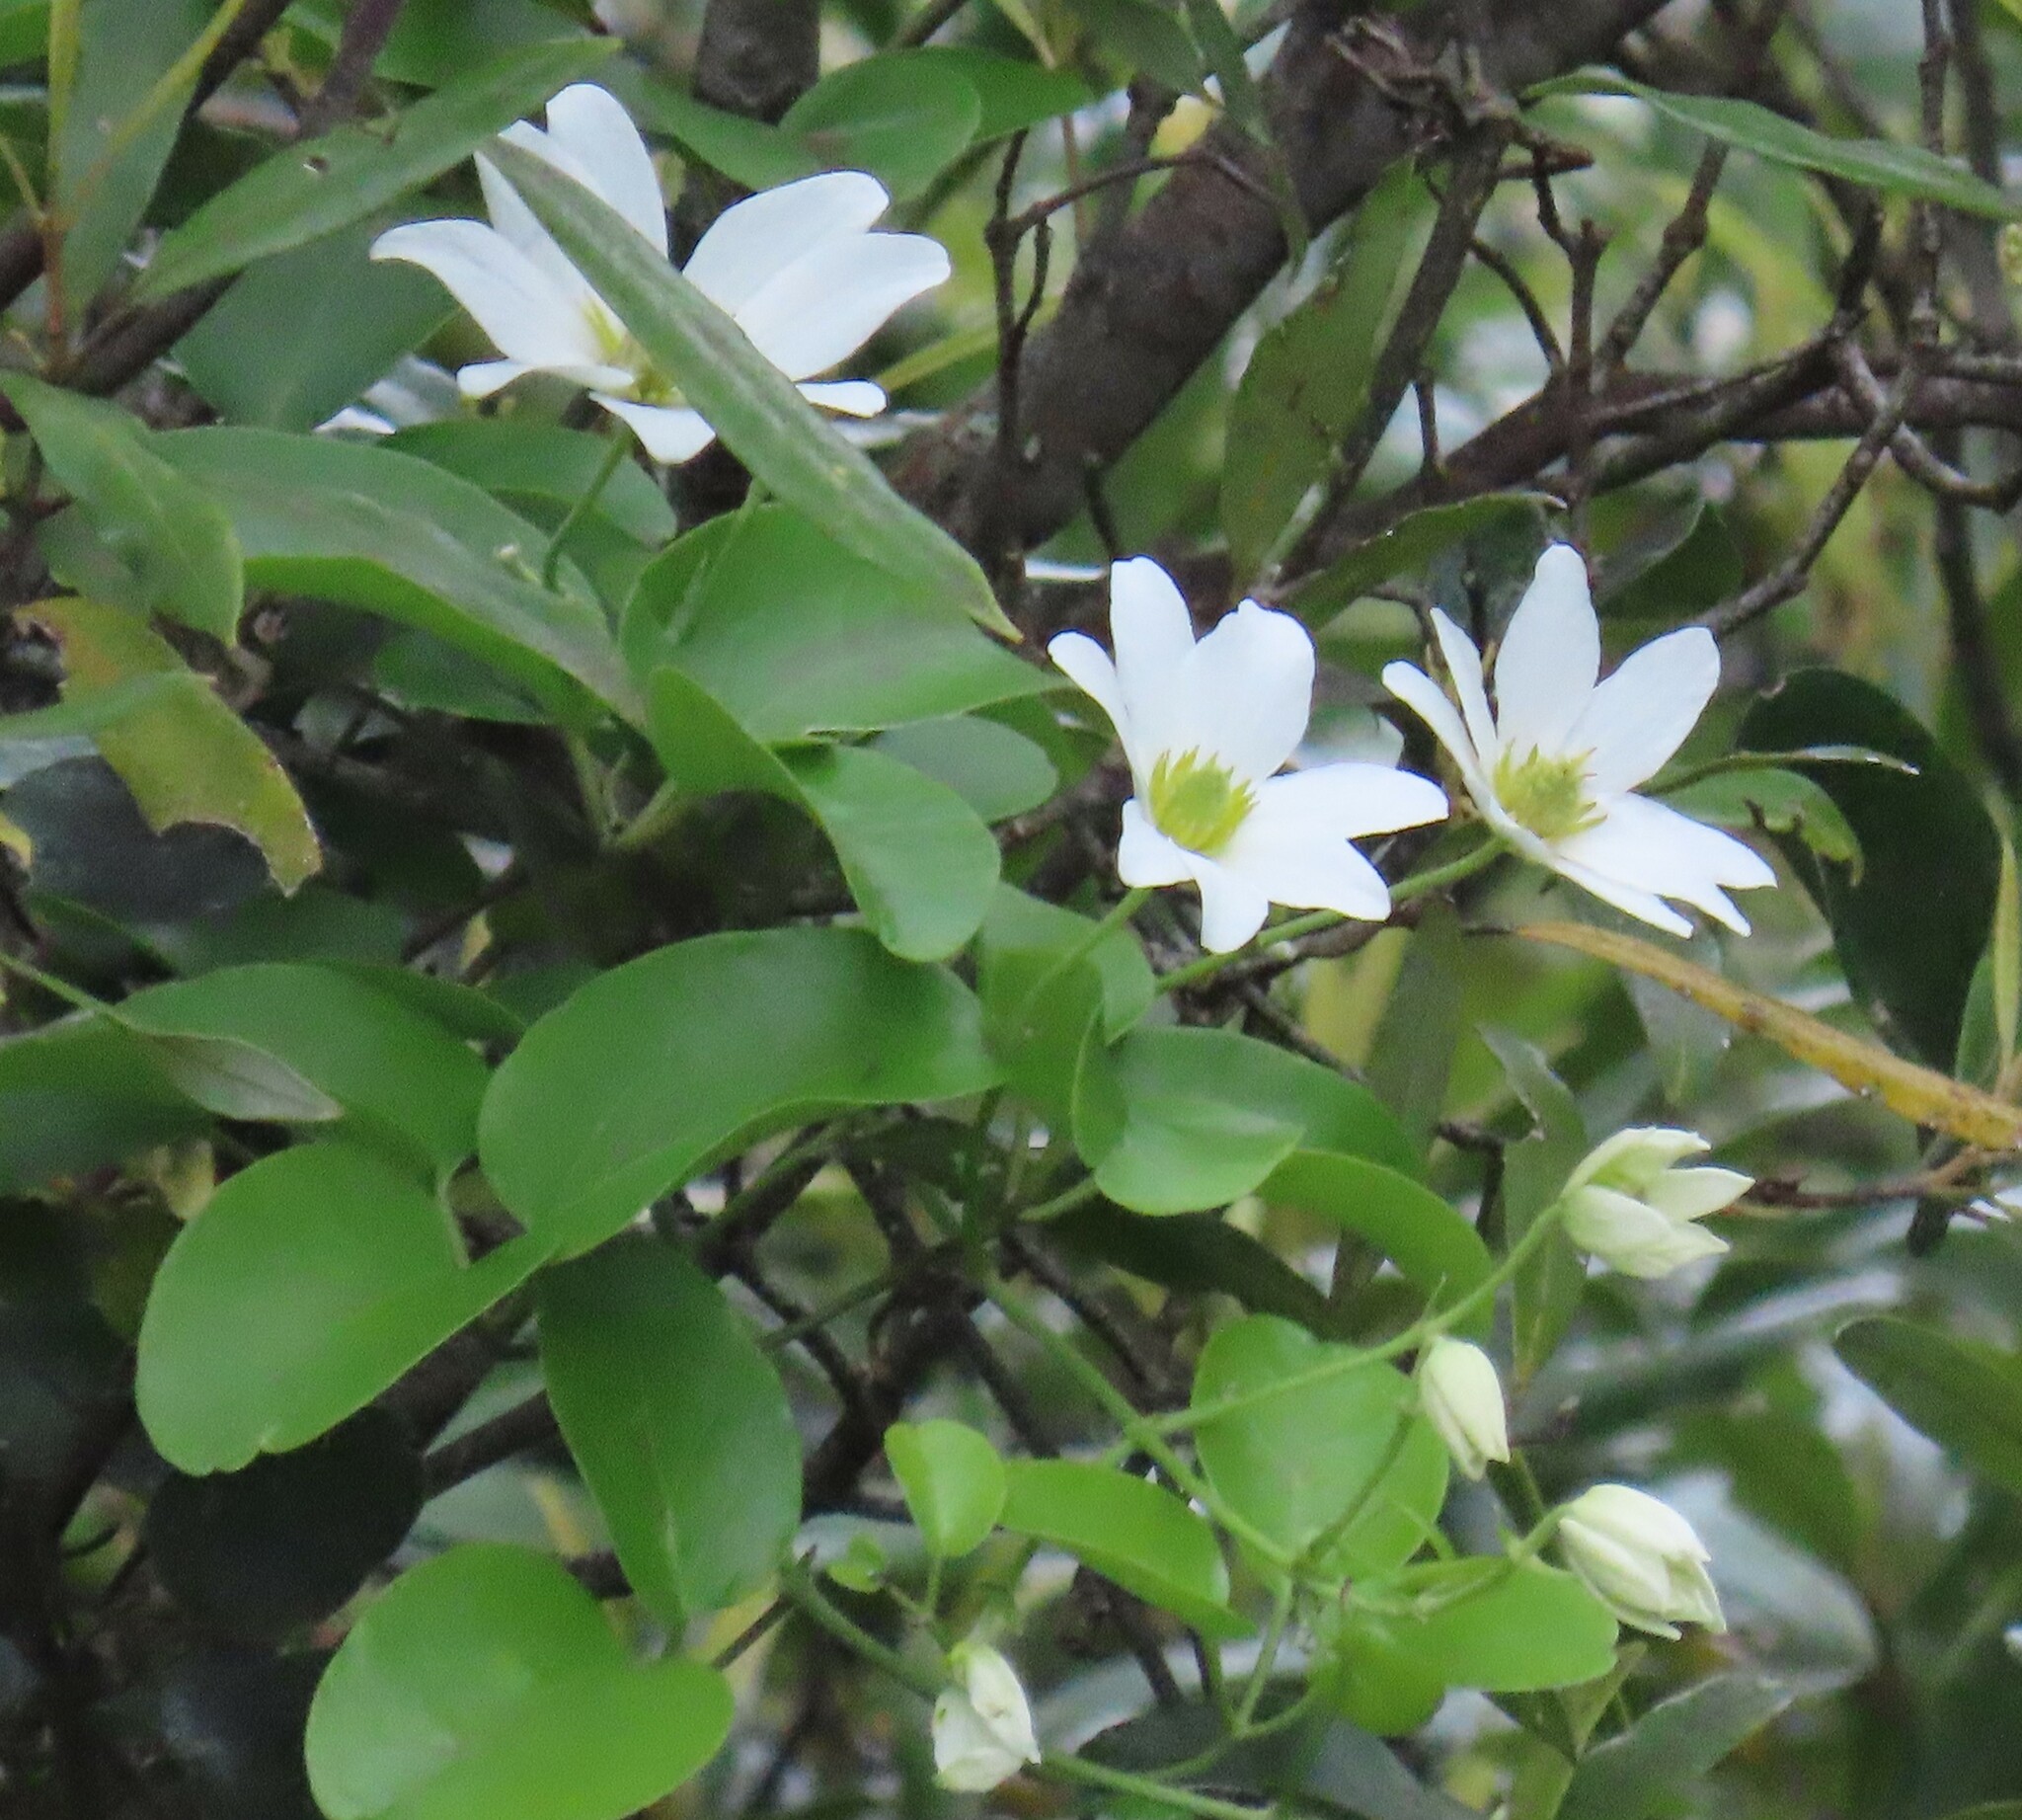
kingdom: Plantae
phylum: Tracheophyta
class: Magnoliopsida
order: Ranunculales
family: Ranunculaceae
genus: Clematis
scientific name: Clematis paniculata
